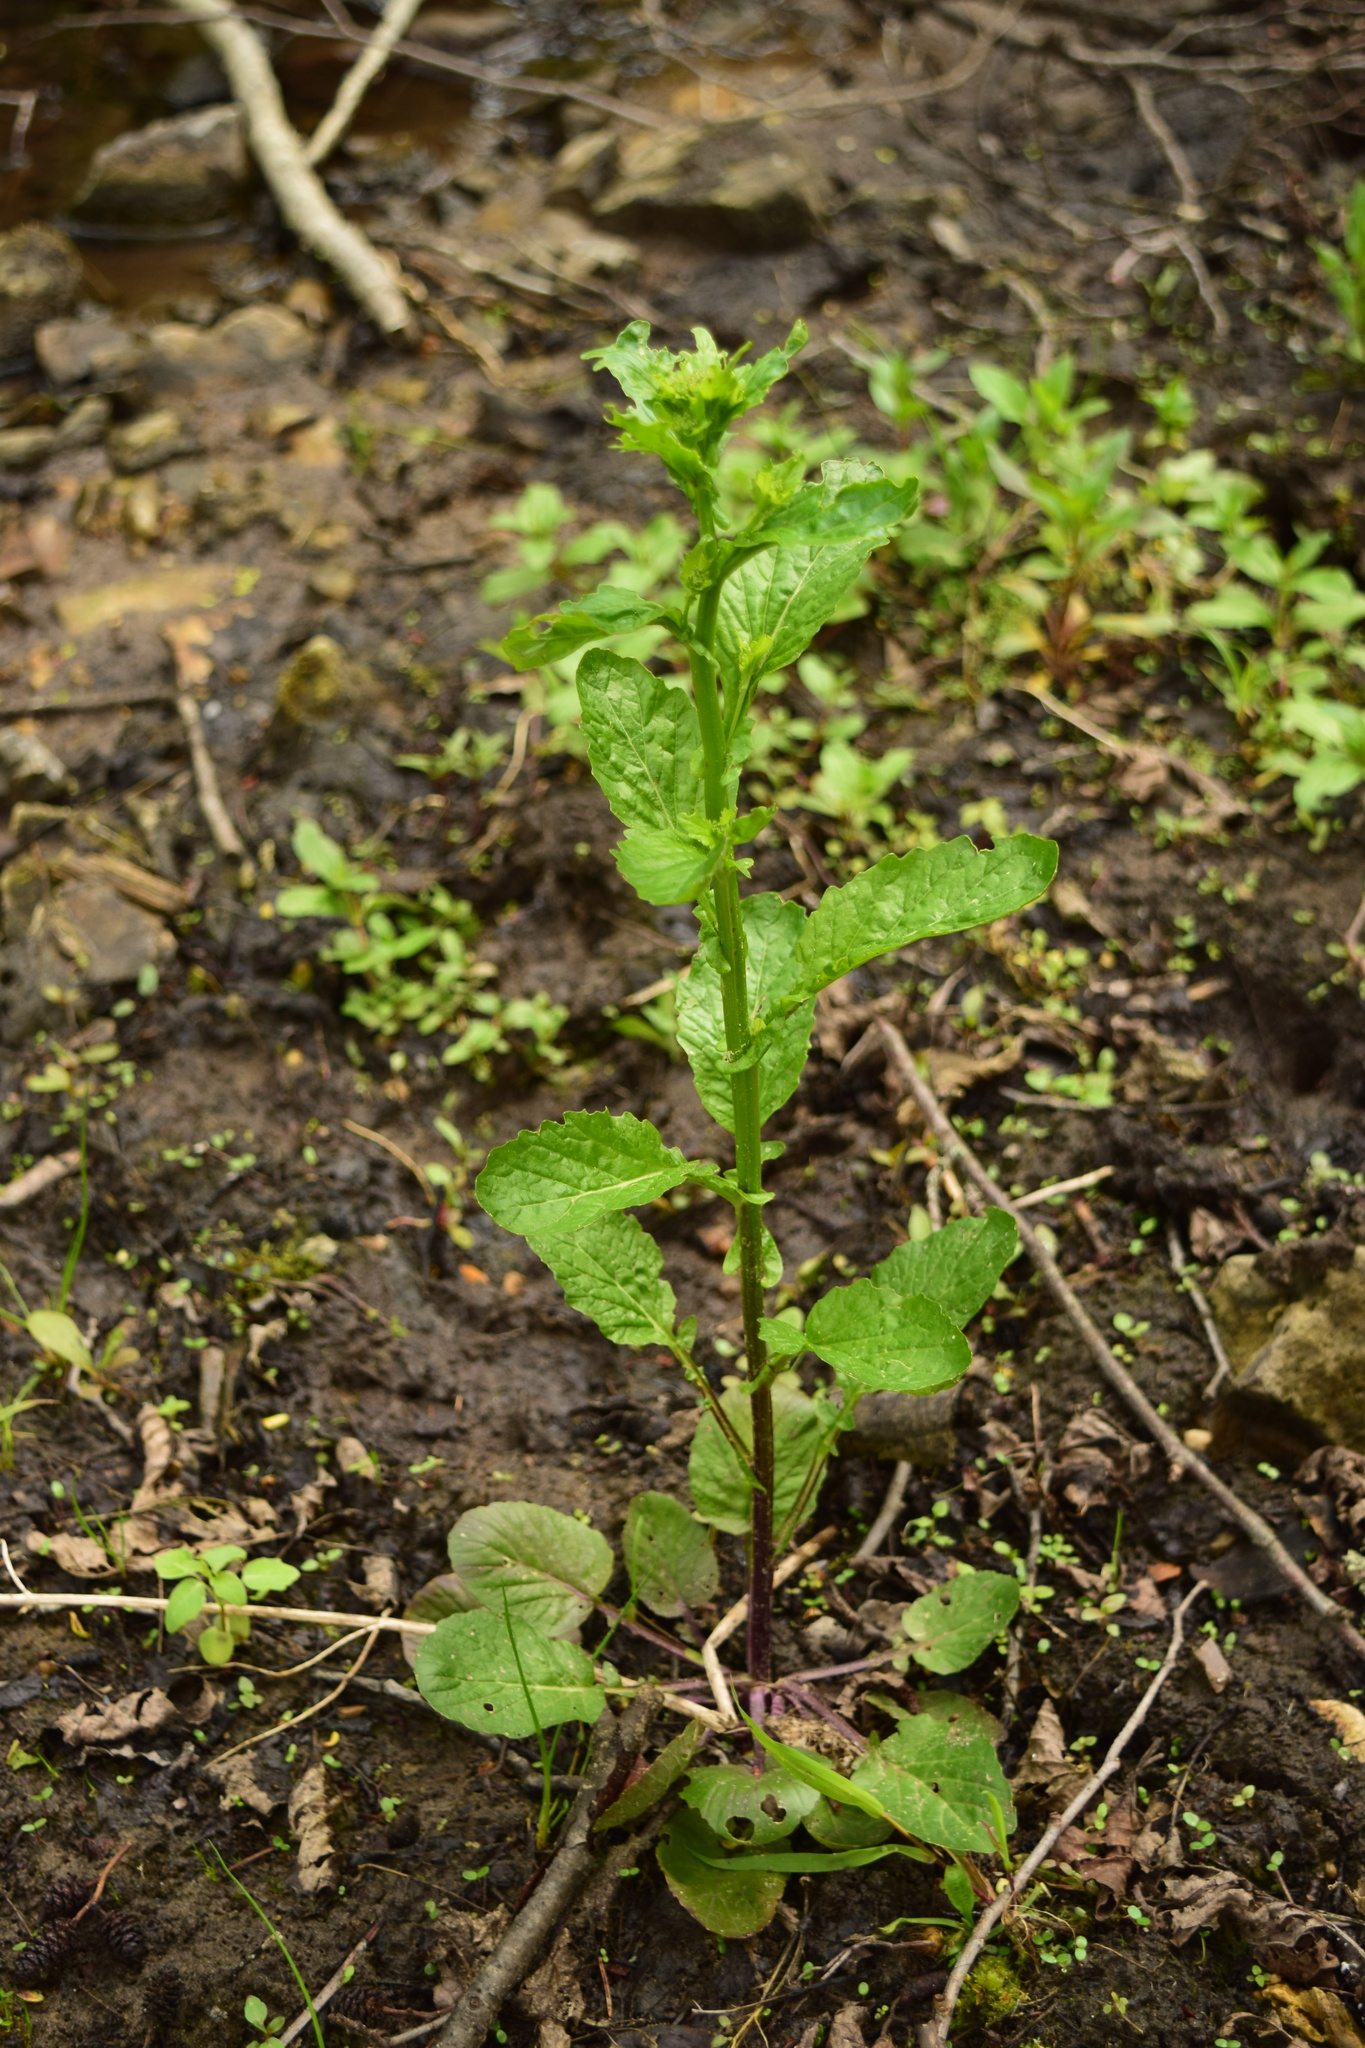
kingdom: Plantae
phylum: Tracheophyta
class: Magnoliopsida
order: Asterales
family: Asteraceae
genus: Lapsana
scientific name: Lapsana communis
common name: Nipplewort
